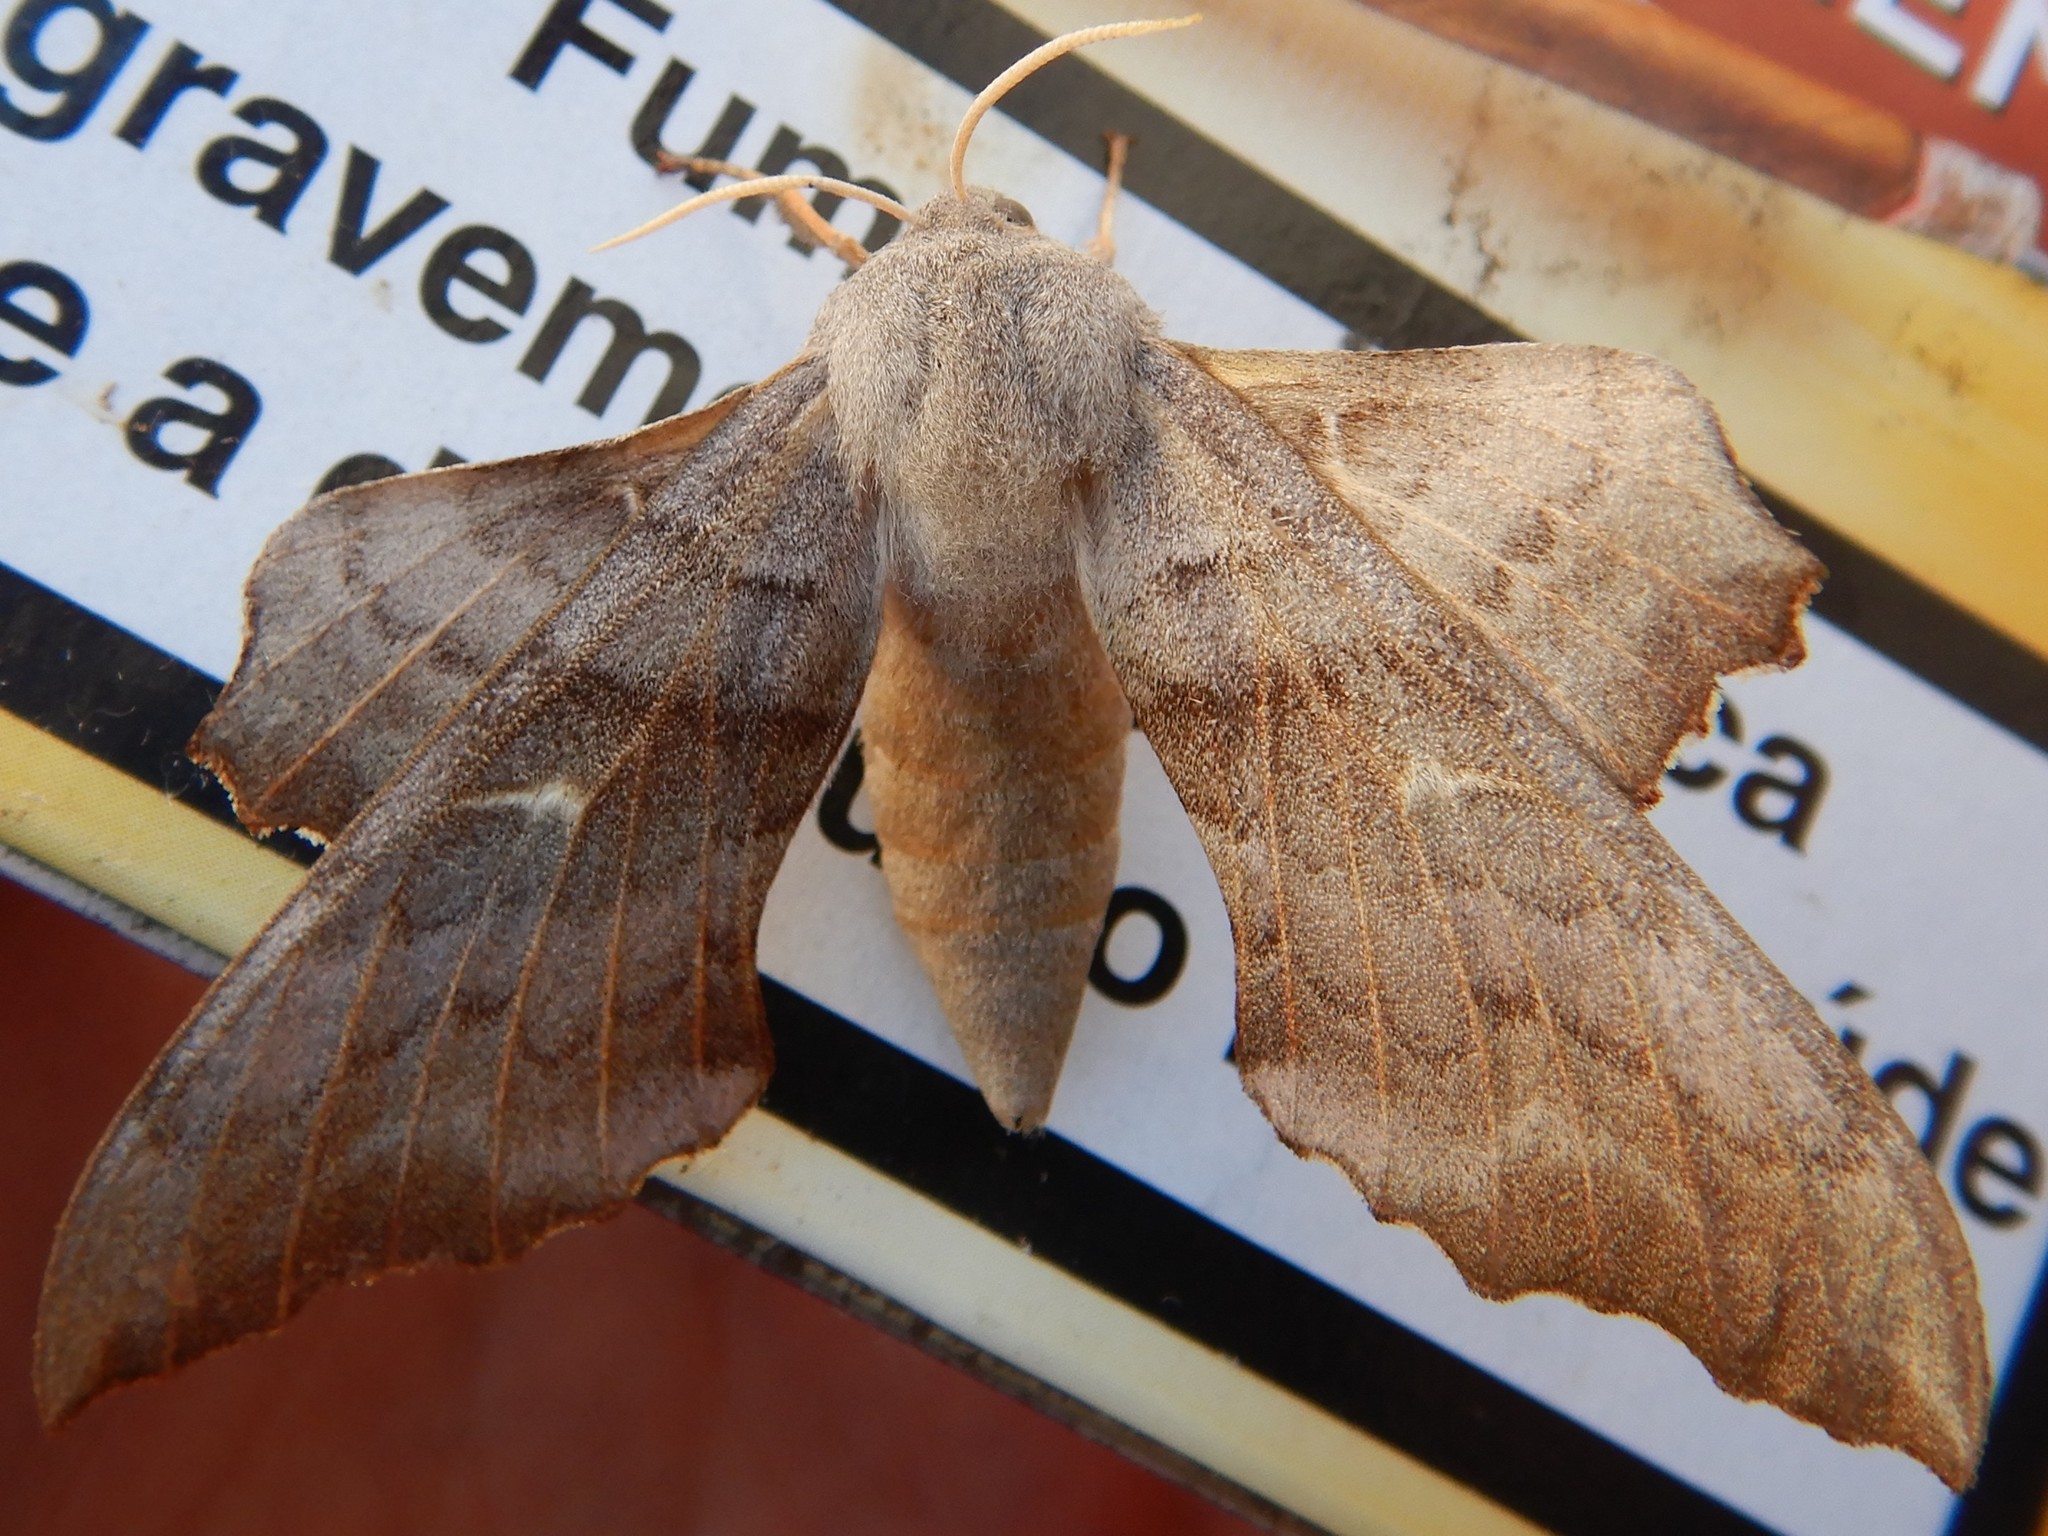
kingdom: Animalia
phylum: Arthropoda
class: Insecta
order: Lepidoptera
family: Sphingidae
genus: Laothoe
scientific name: Laothoe populi
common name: Poplar hawk-moth
